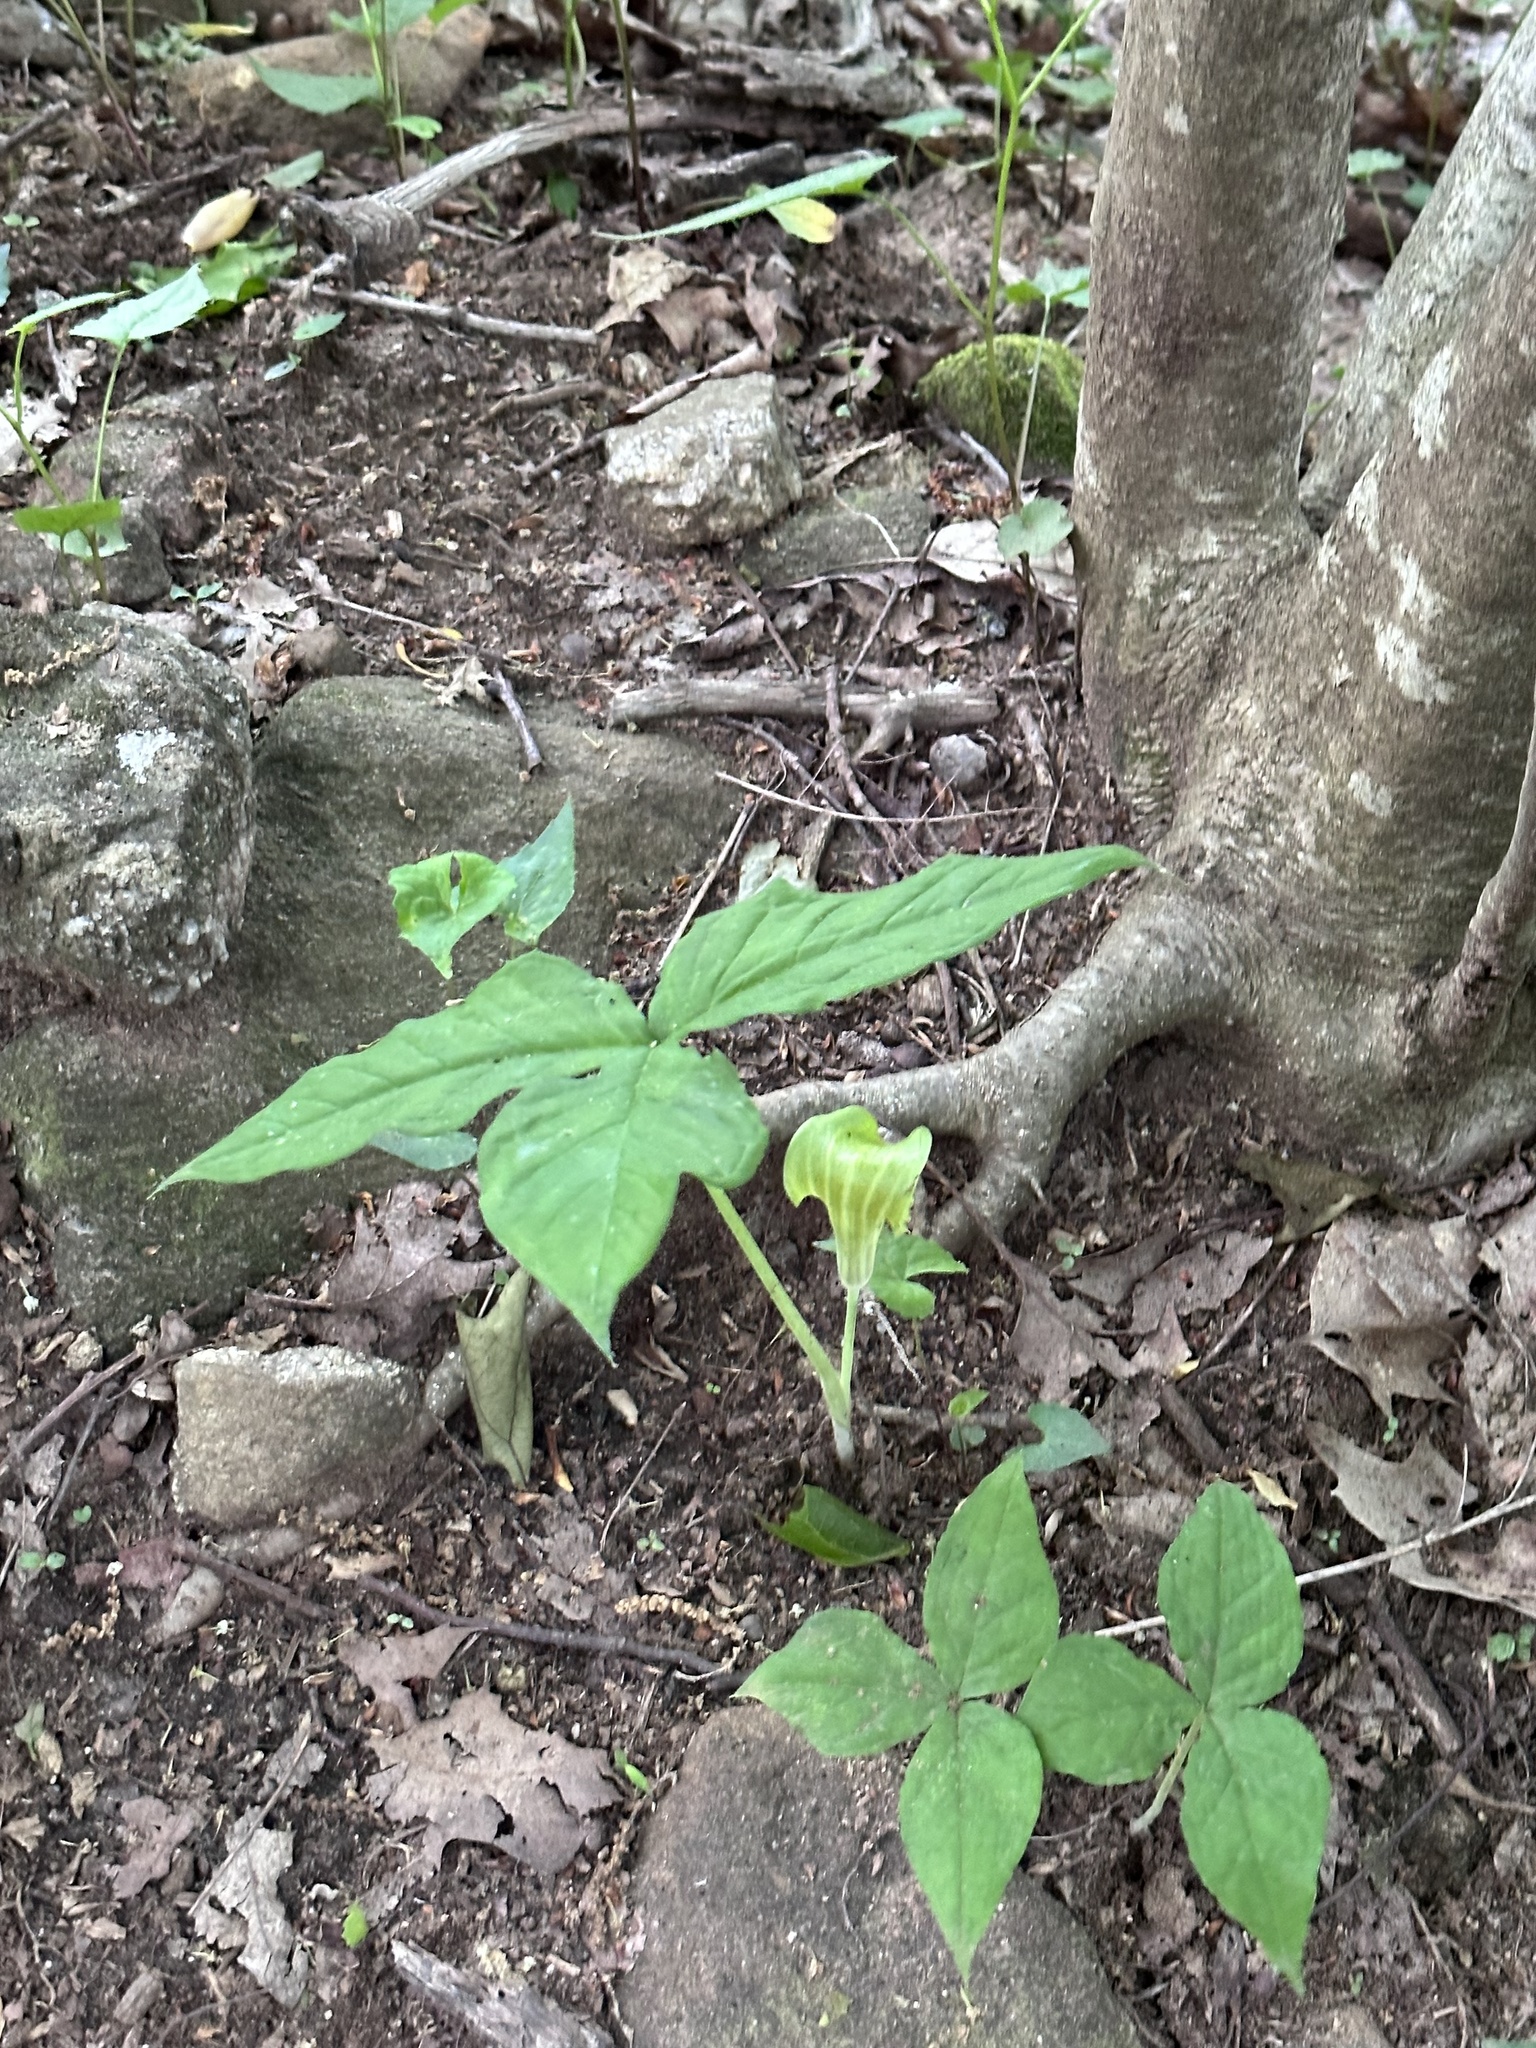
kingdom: Plantae
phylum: Tracheophyta
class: Liliopsida
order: Alismatales
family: Araceae
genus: Arisaema
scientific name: Arisaema triphyllum
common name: Jack-in-the-pulpit
